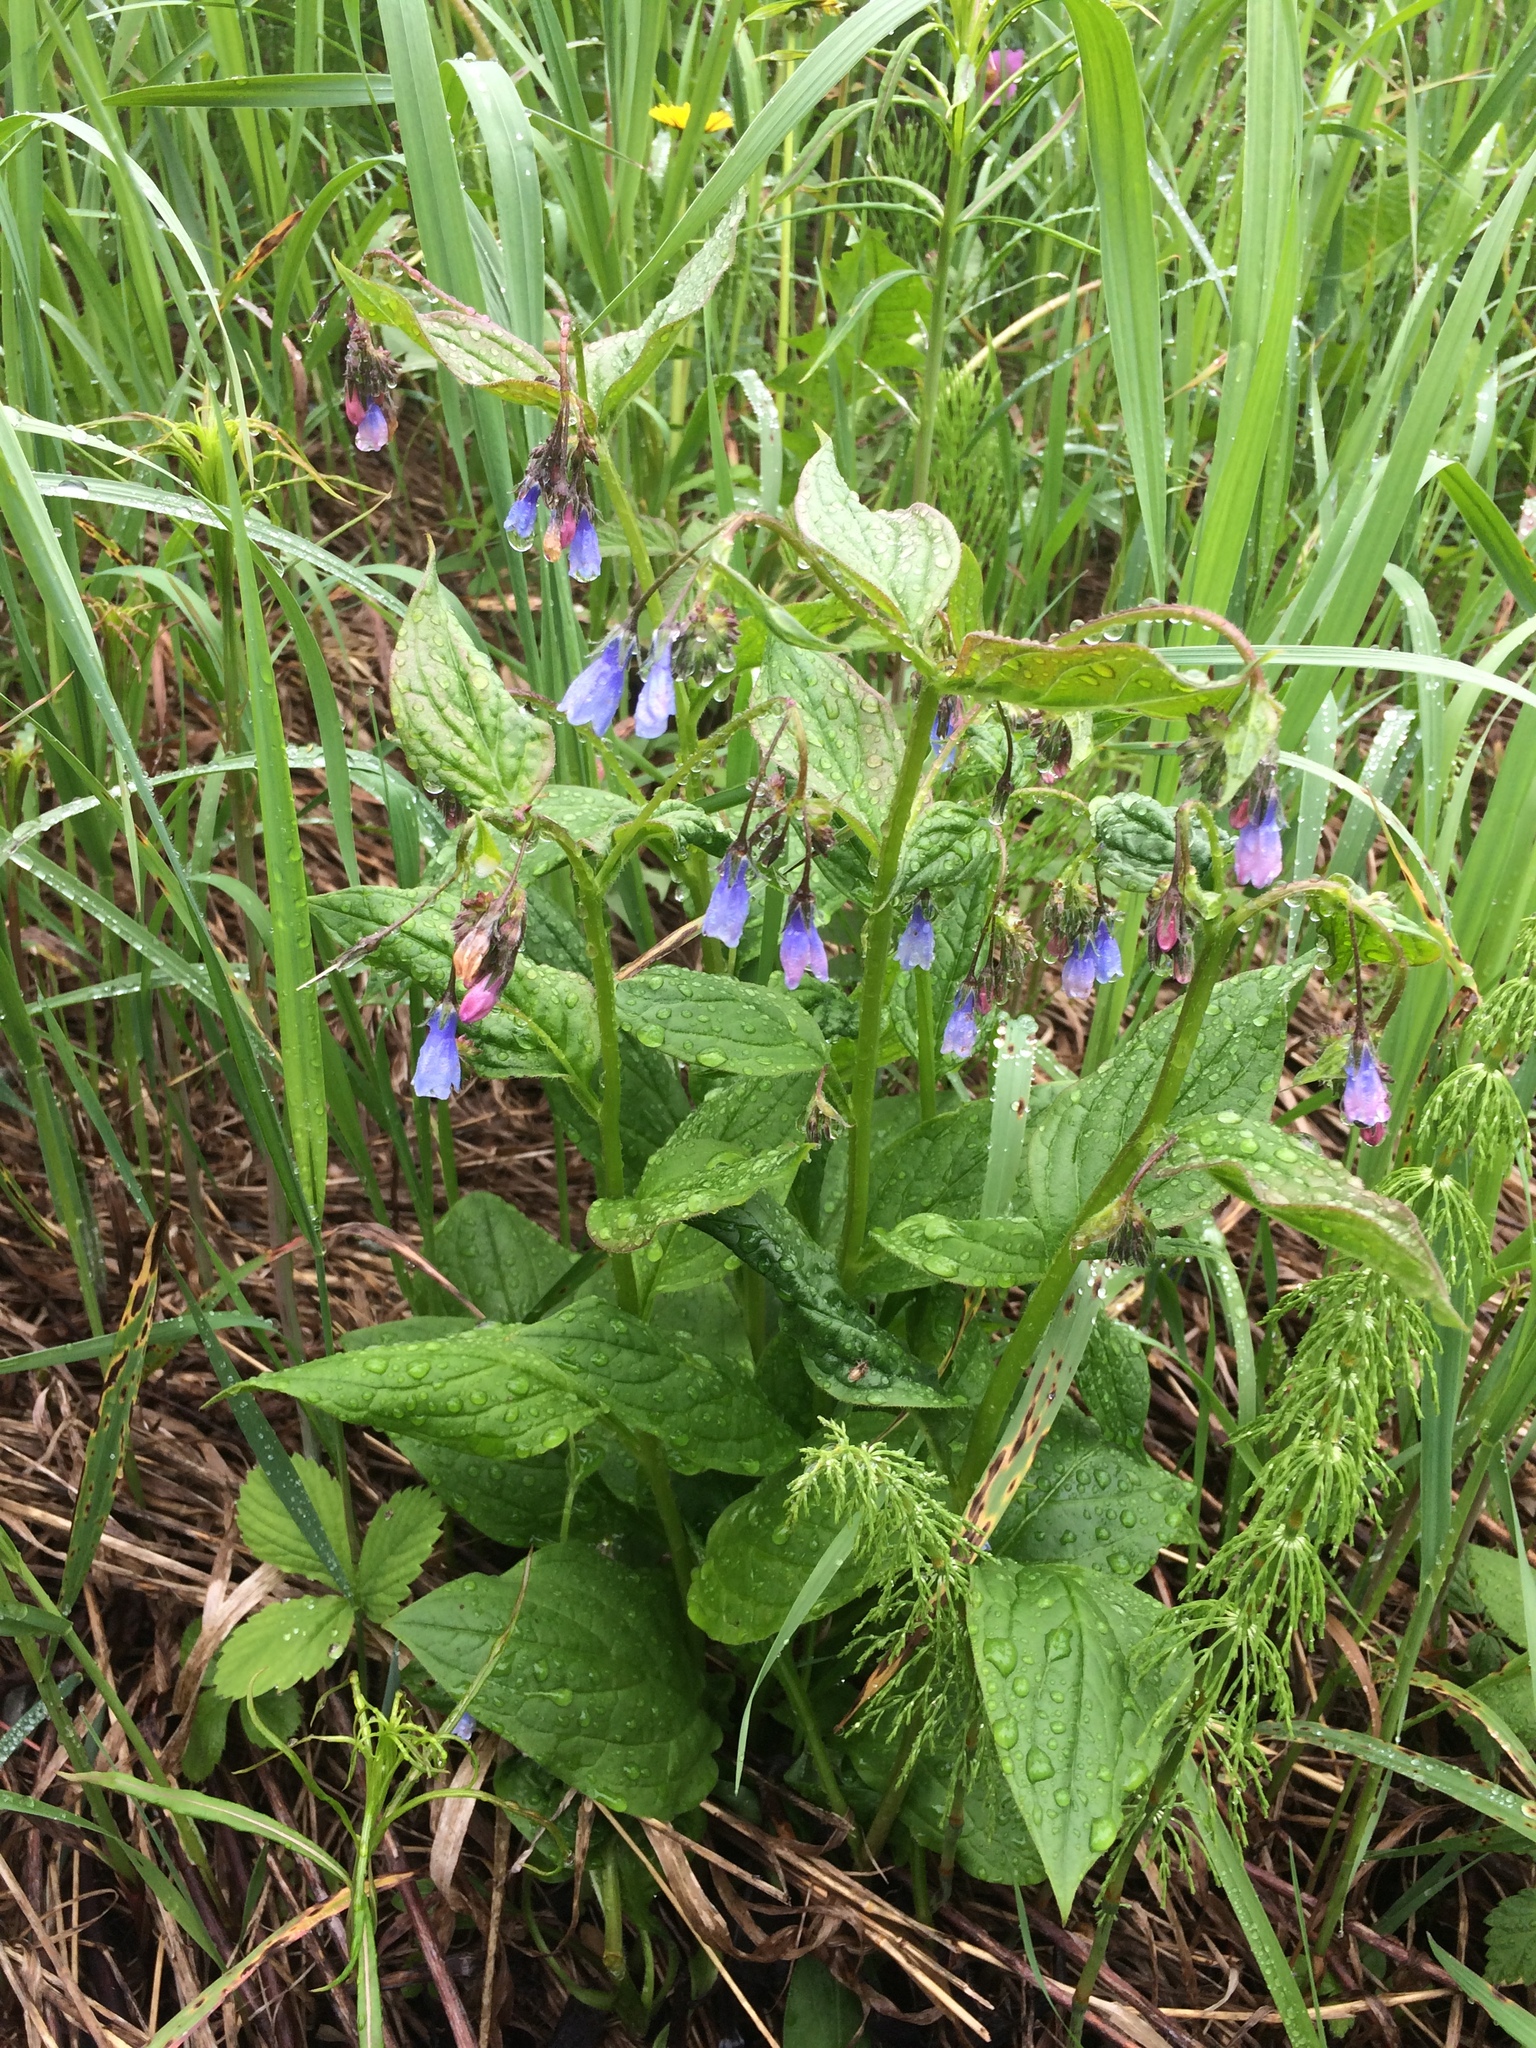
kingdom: Plantae
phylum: Tracheophyta
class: Magnoliopsida
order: Boraginales
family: Boraginaceae
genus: Mertensia
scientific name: Mertensia paniculata
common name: Panicled bluebells
